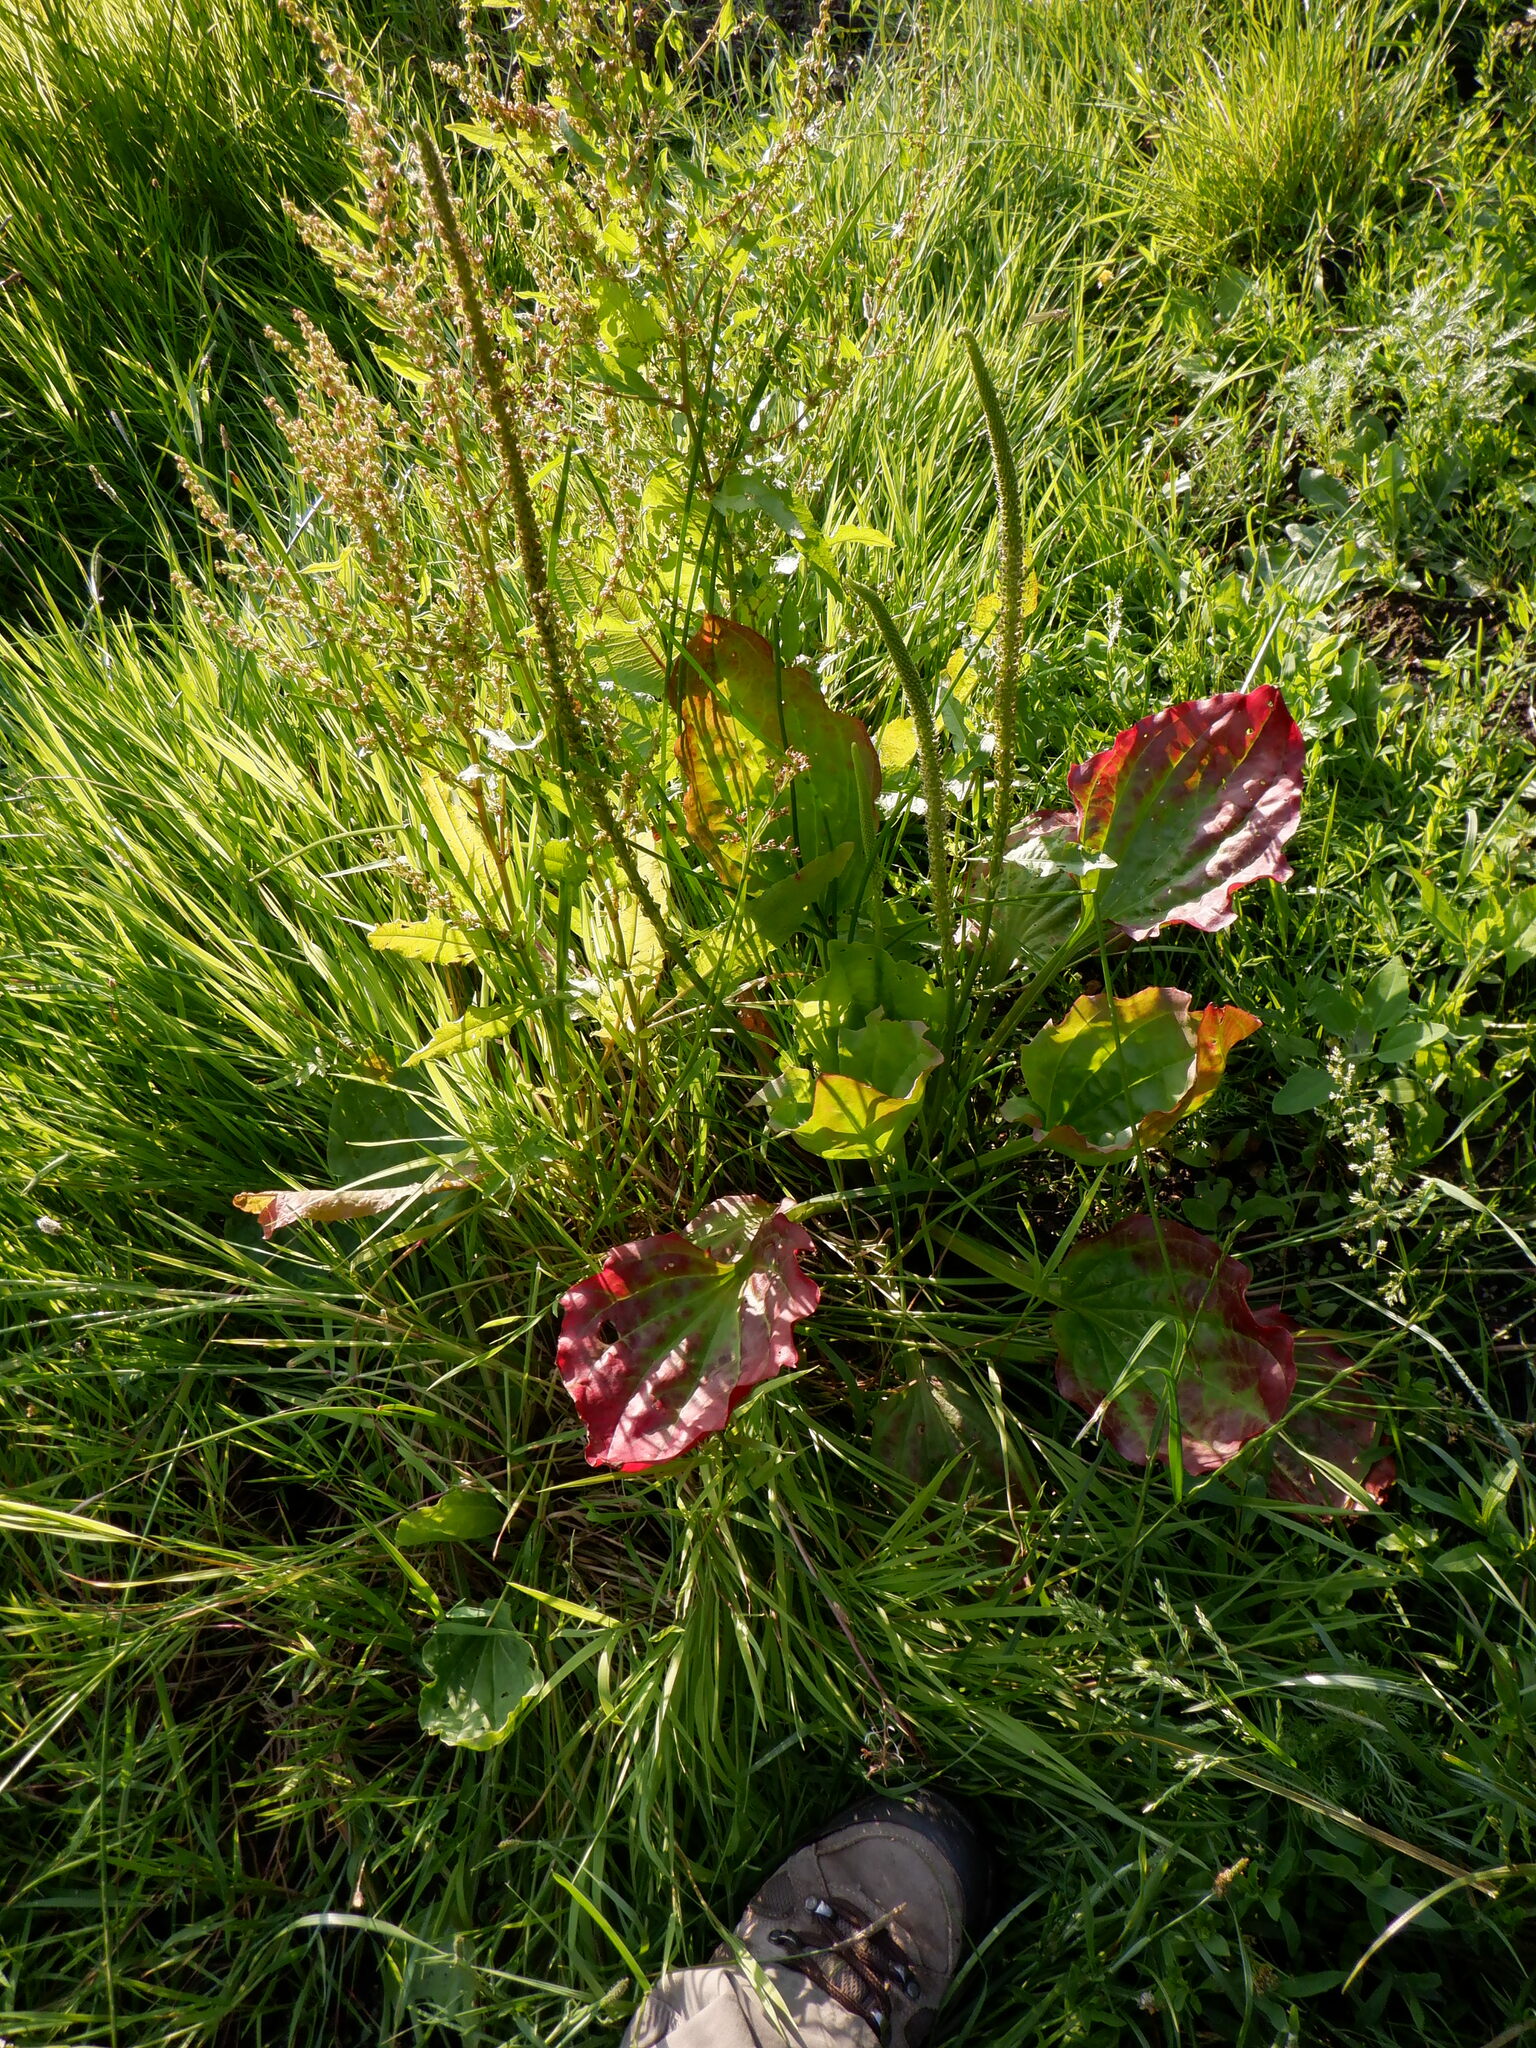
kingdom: Plantae
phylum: Tracheophyta
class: Magnoliopsida
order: Lamiales
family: Plantaginaceae
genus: Plantago
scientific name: Plantago major
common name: Common plantain
